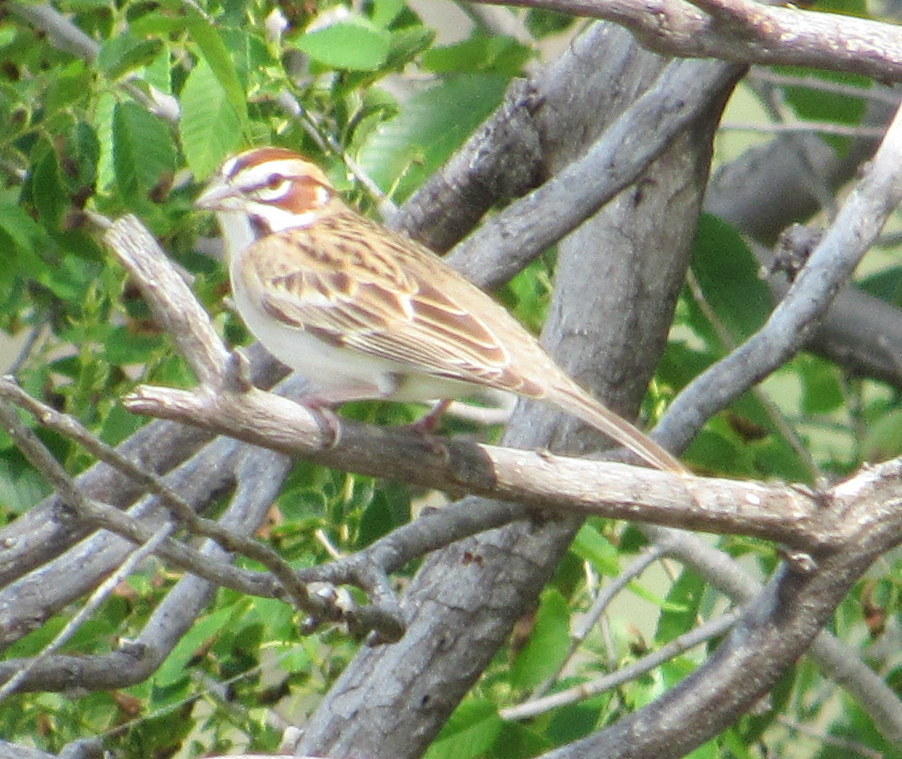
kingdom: Animalia
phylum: Chordata
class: Aves
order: Passeriformes
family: Passerellidae
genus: Chondestes
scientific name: Chondestes grammacus
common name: Lark sparrow
